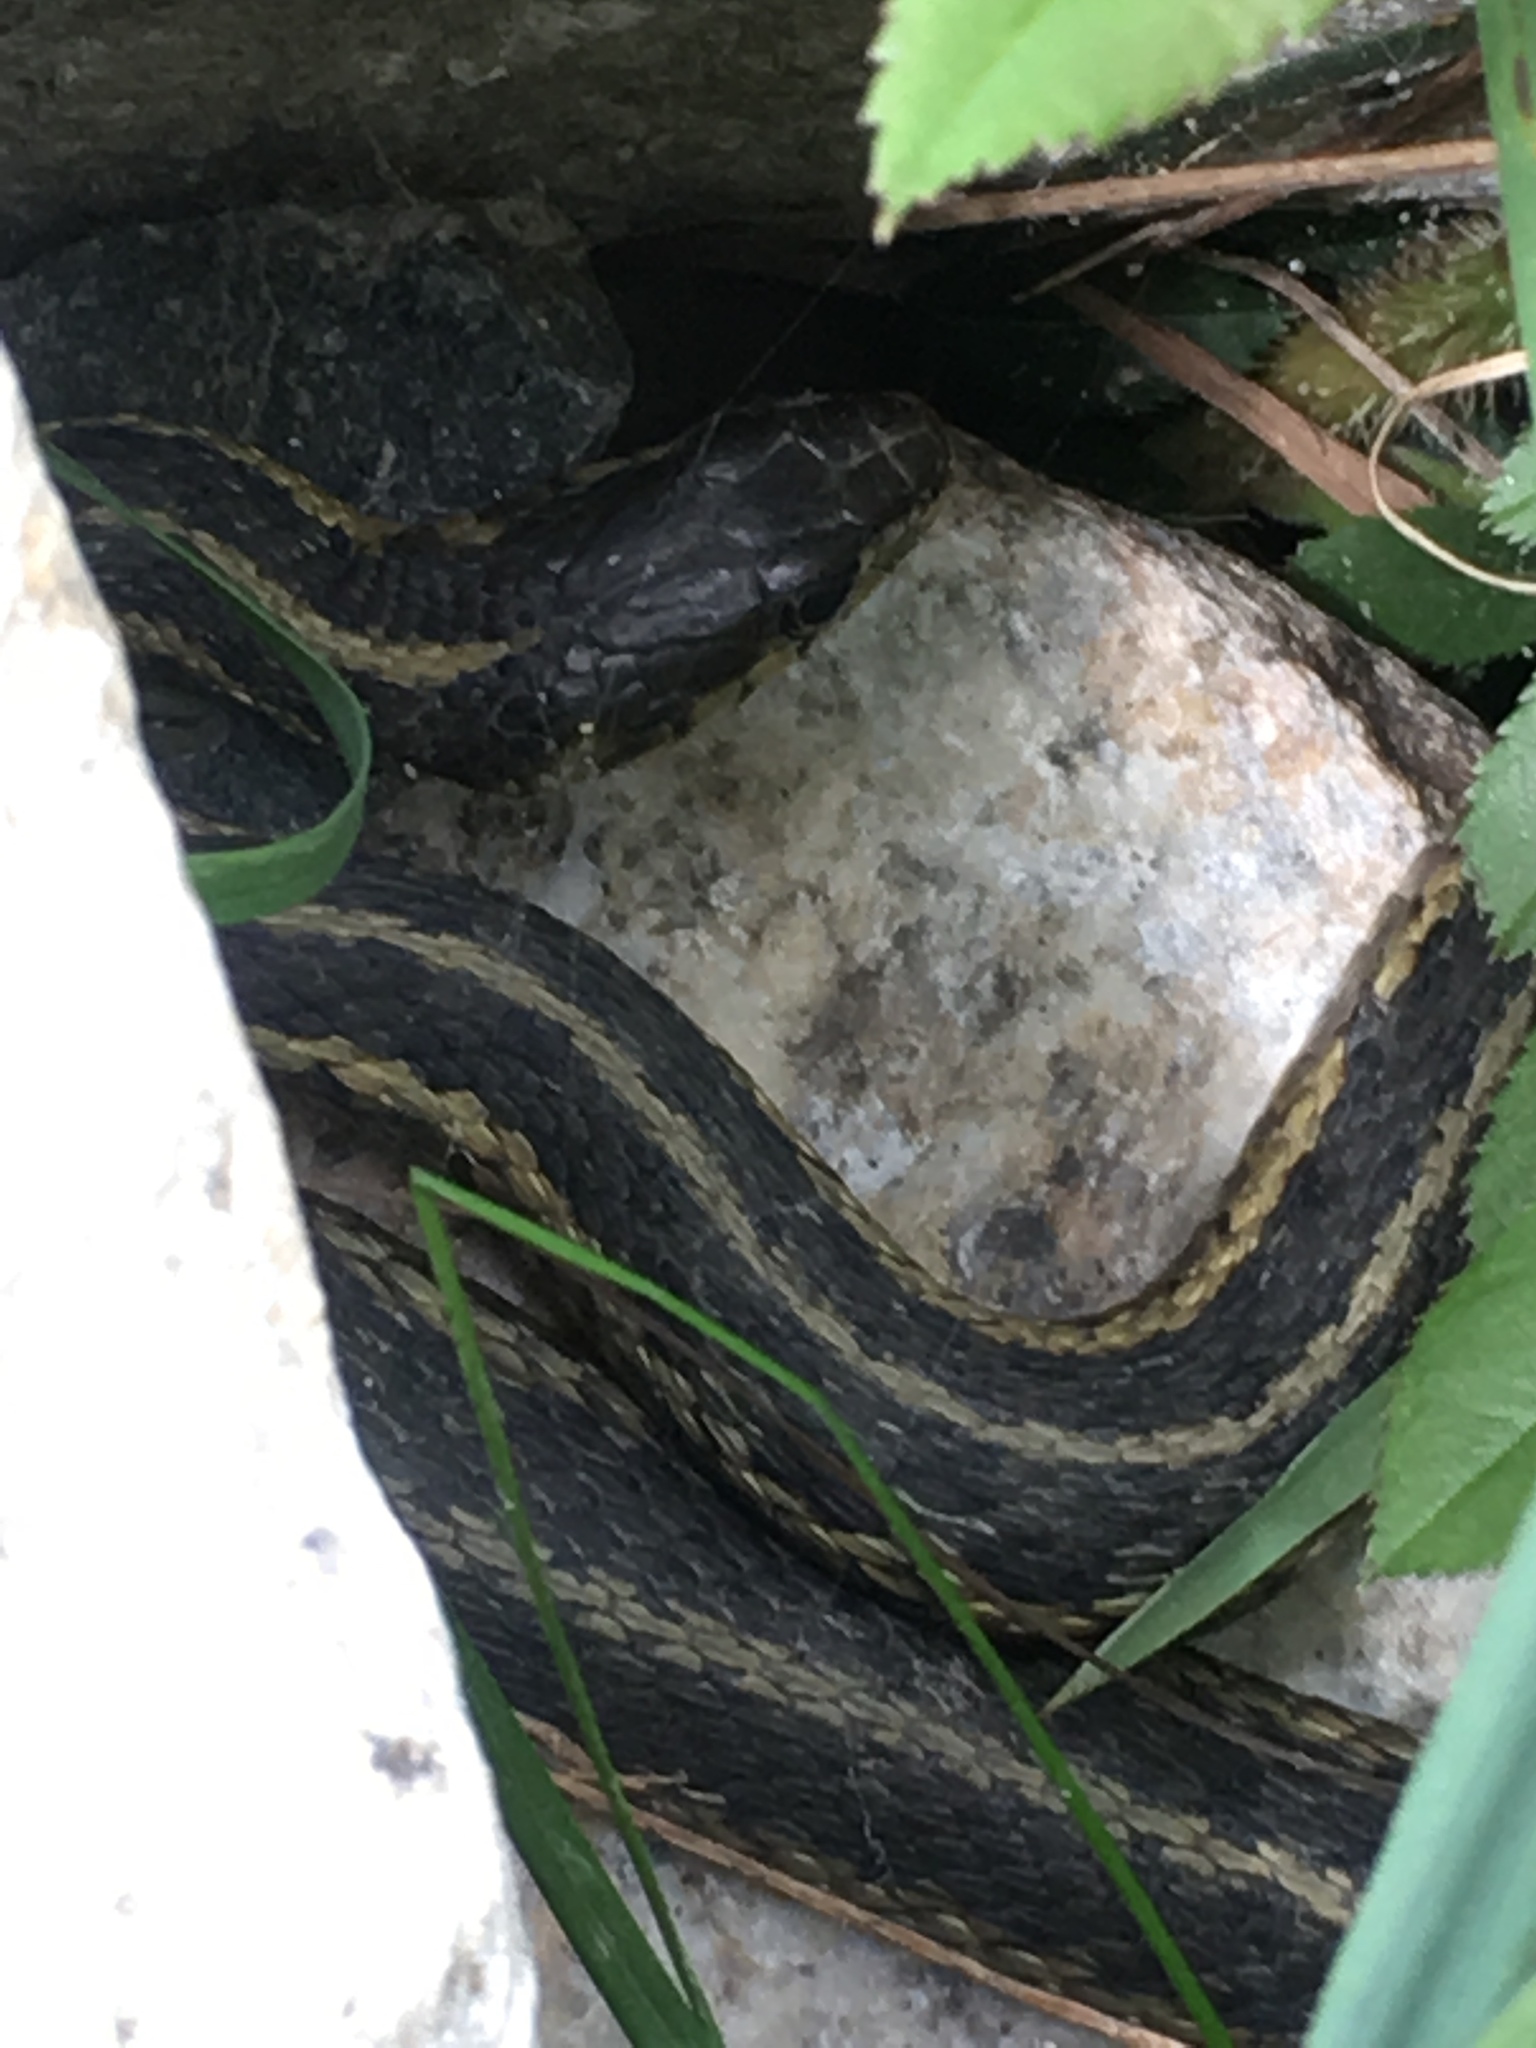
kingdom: Animalia
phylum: Chordata
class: Squamata
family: Colubridae
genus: Thamnophis
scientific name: Thamnophis sirtalis
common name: Common garter snake
